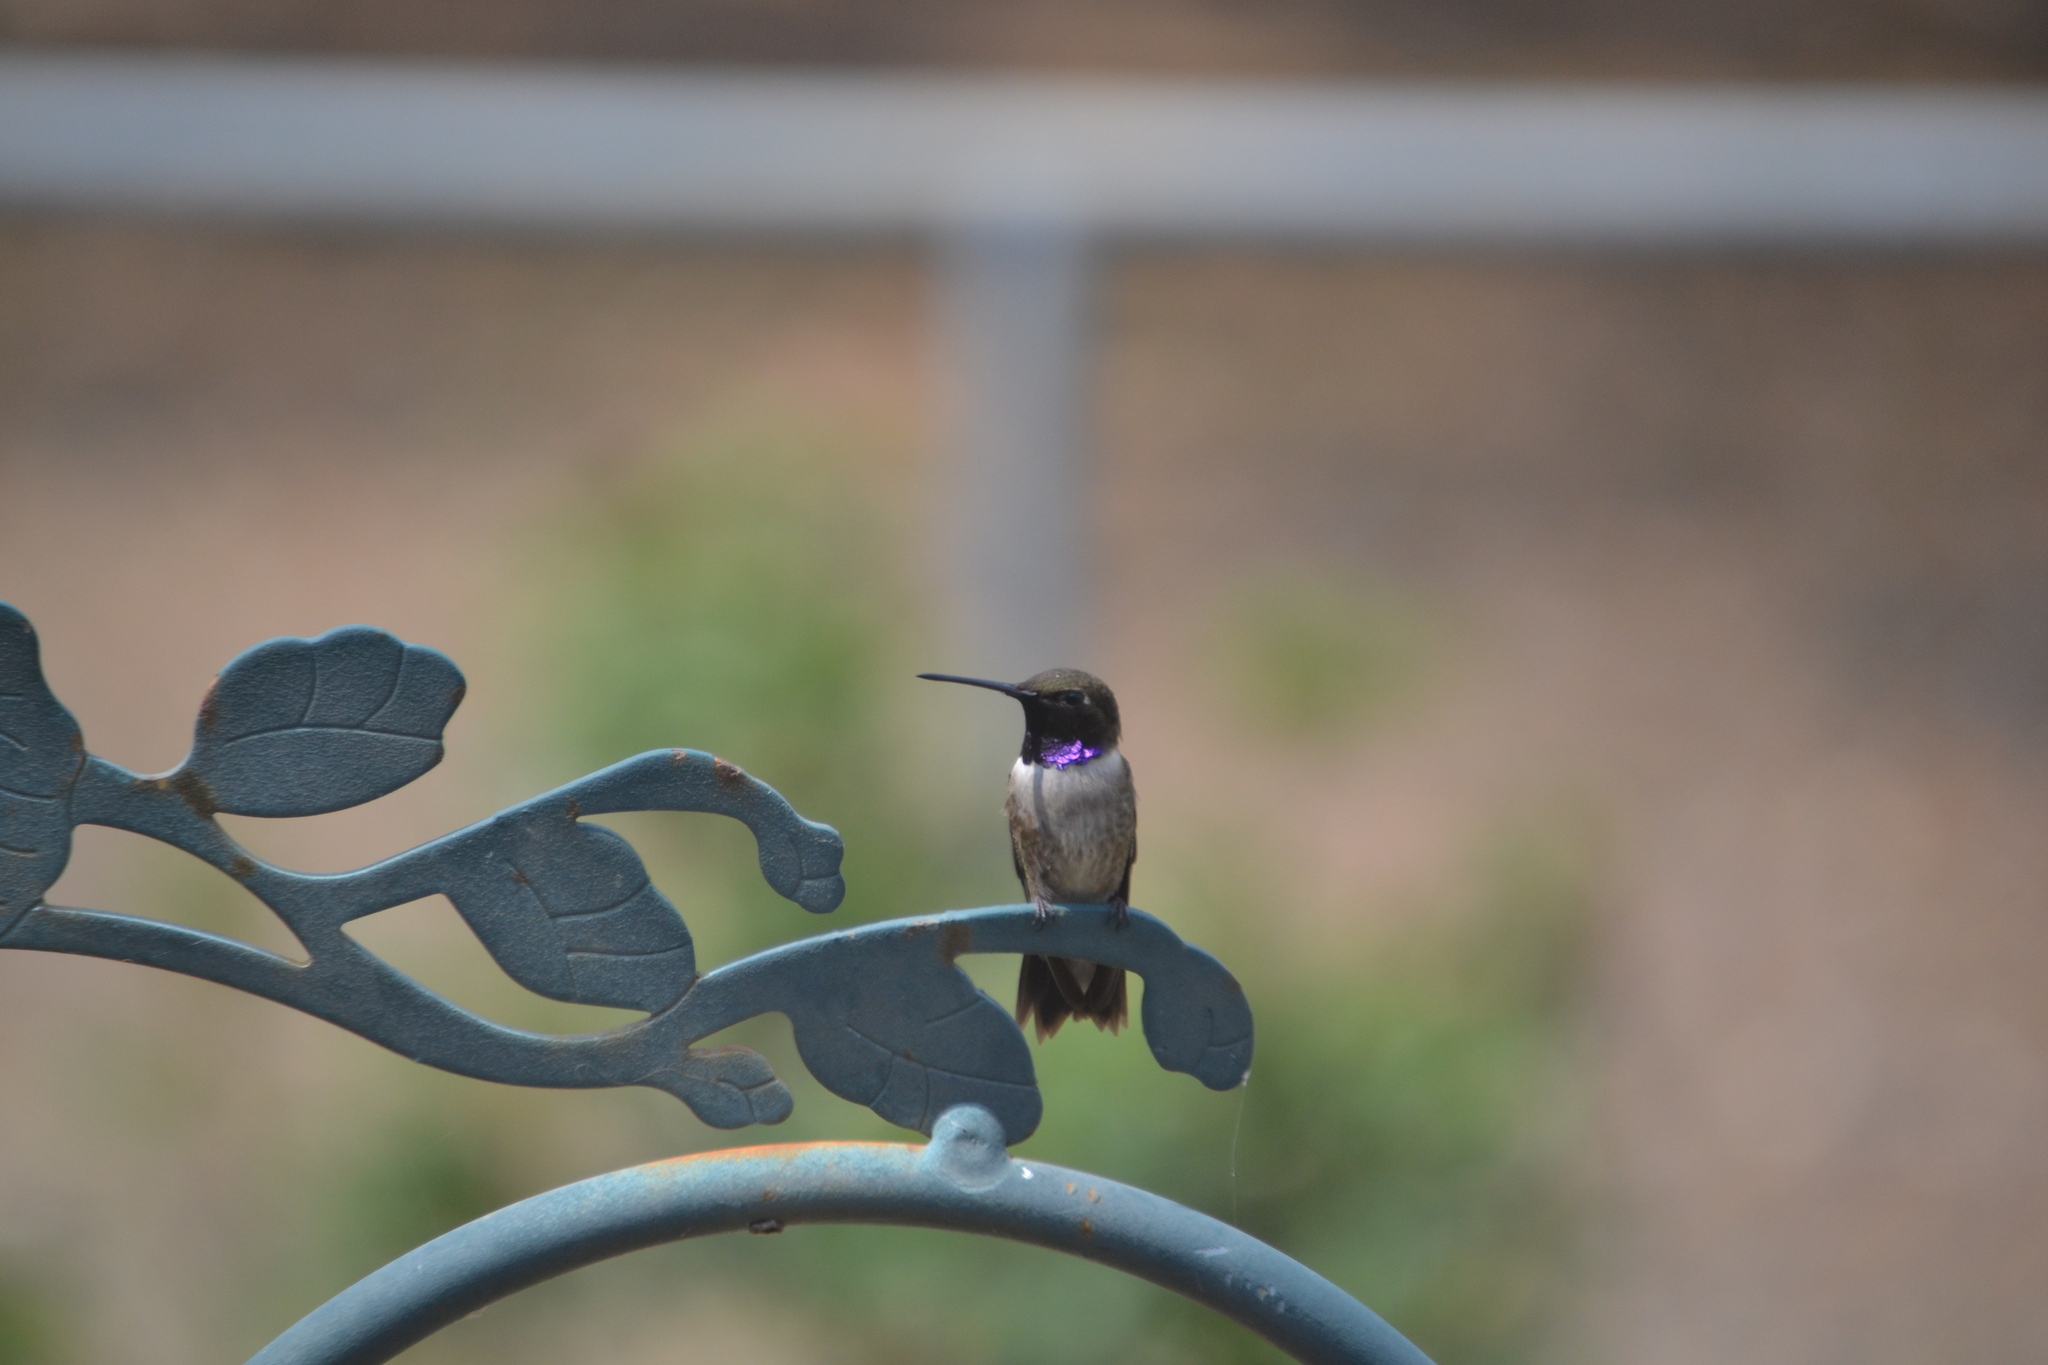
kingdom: Animalia
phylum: Chordata
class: Aves
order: Apodiformes
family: Trochilidae
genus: Archilochus
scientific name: Archilochus alexandri
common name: Black-chinned hummingbird
